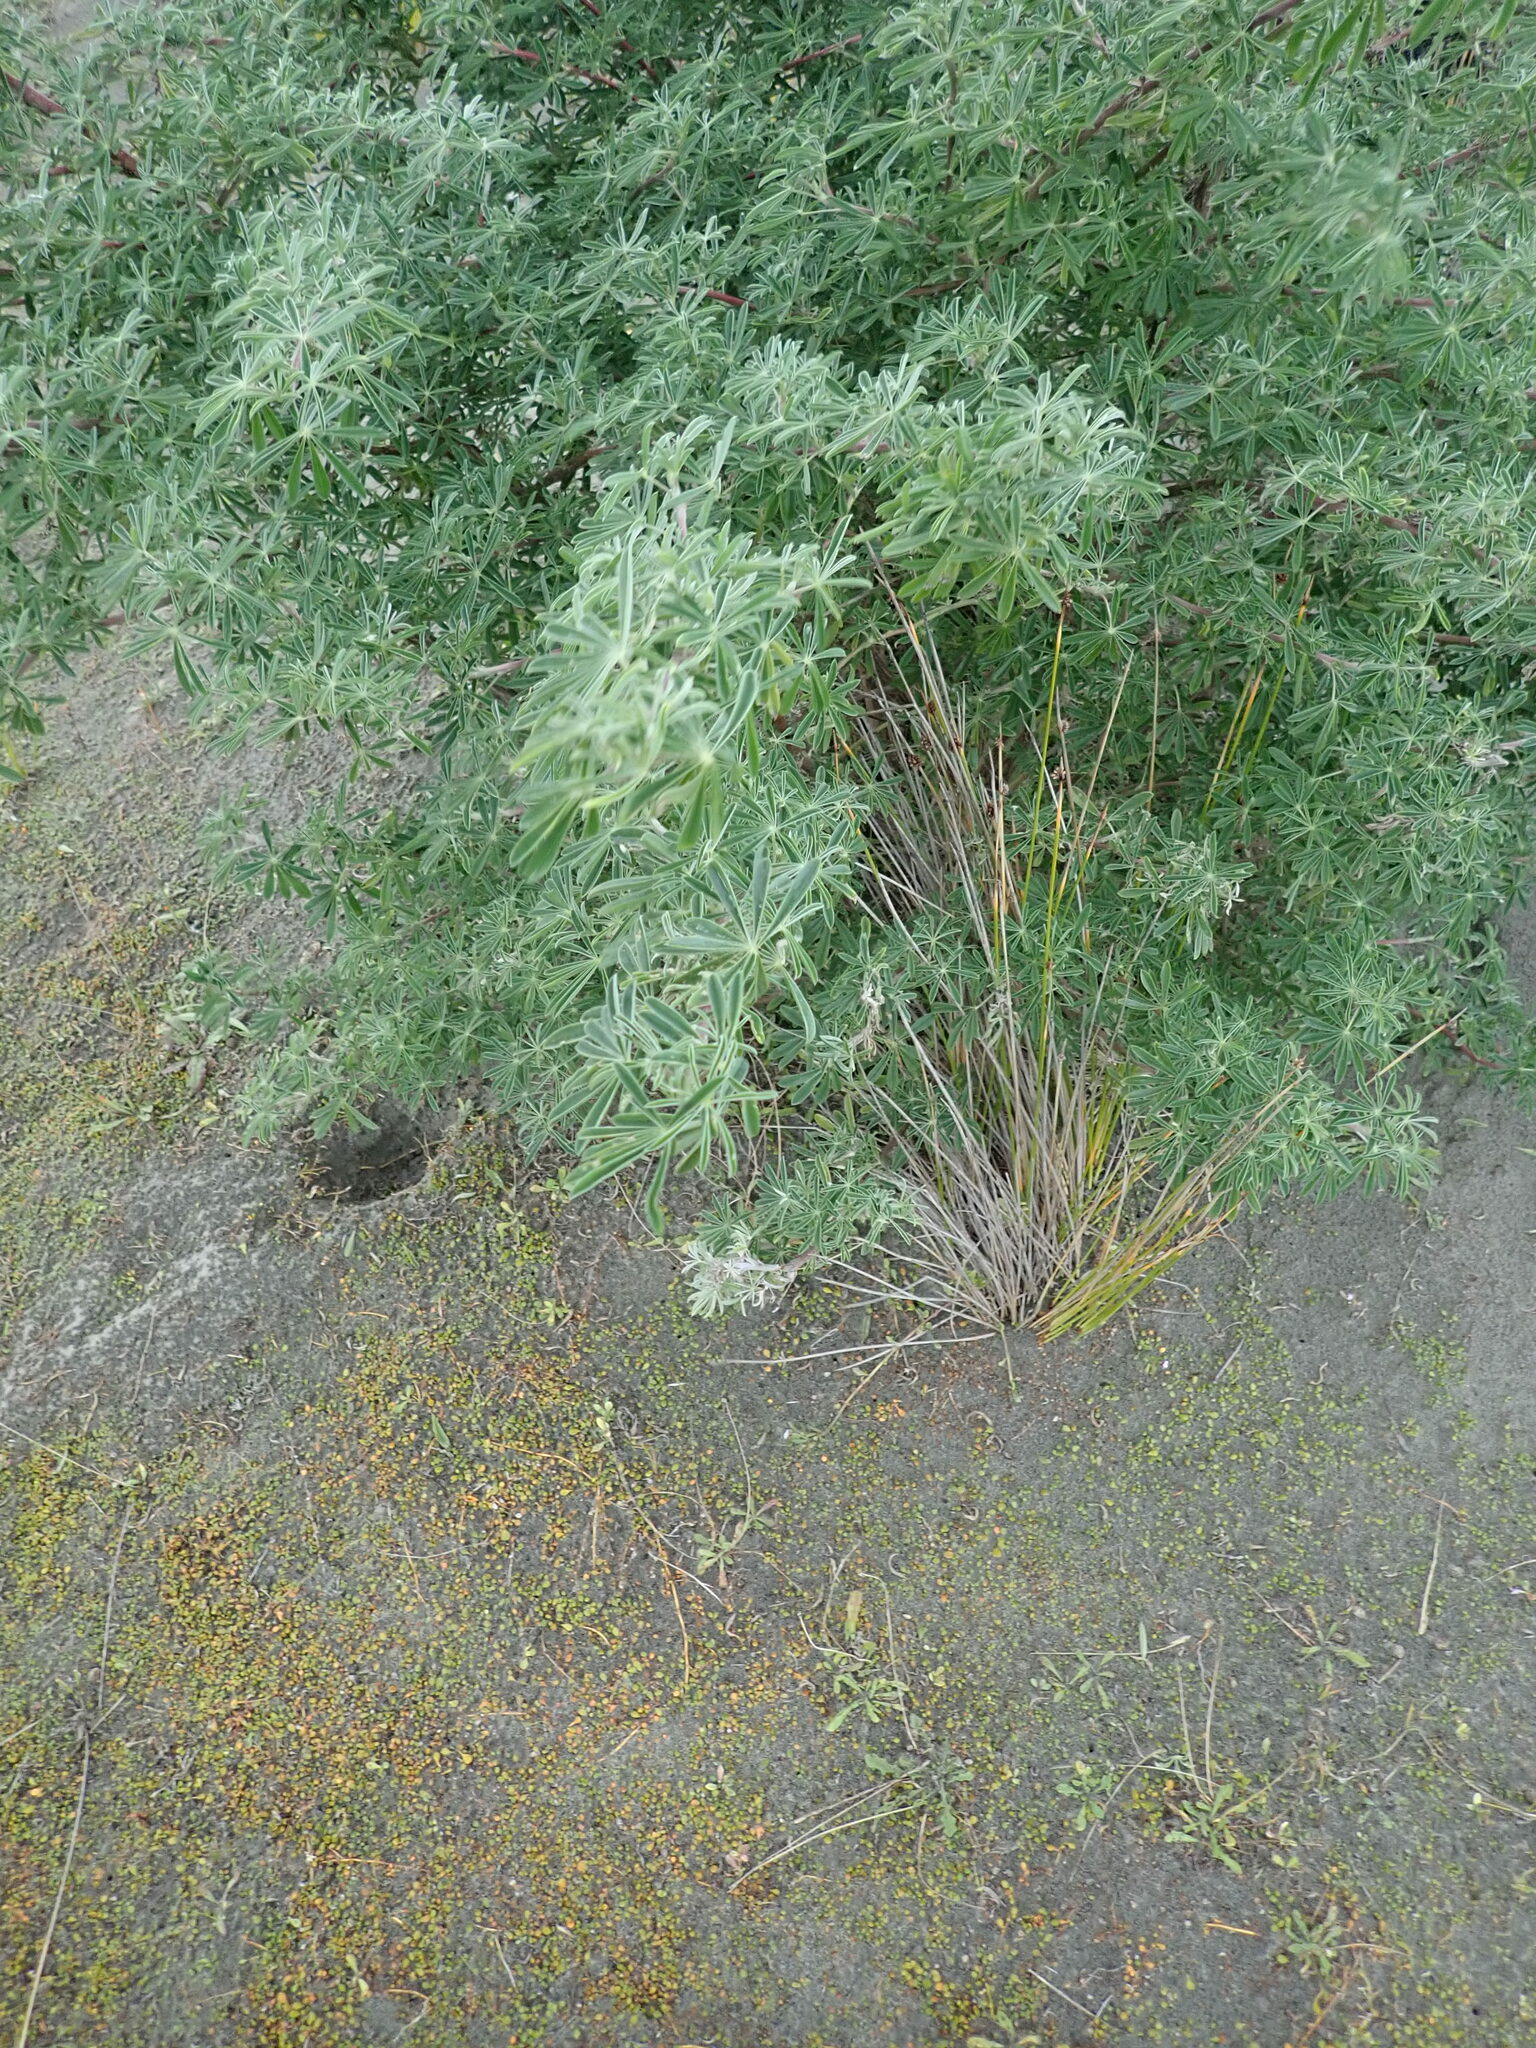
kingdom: Plantae
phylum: Tracheophyta
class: Magnoliopsida
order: Fabales
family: Fabaceae
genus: Lupinus
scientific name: Lupinus arboreus
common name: Yellow bush lupine
